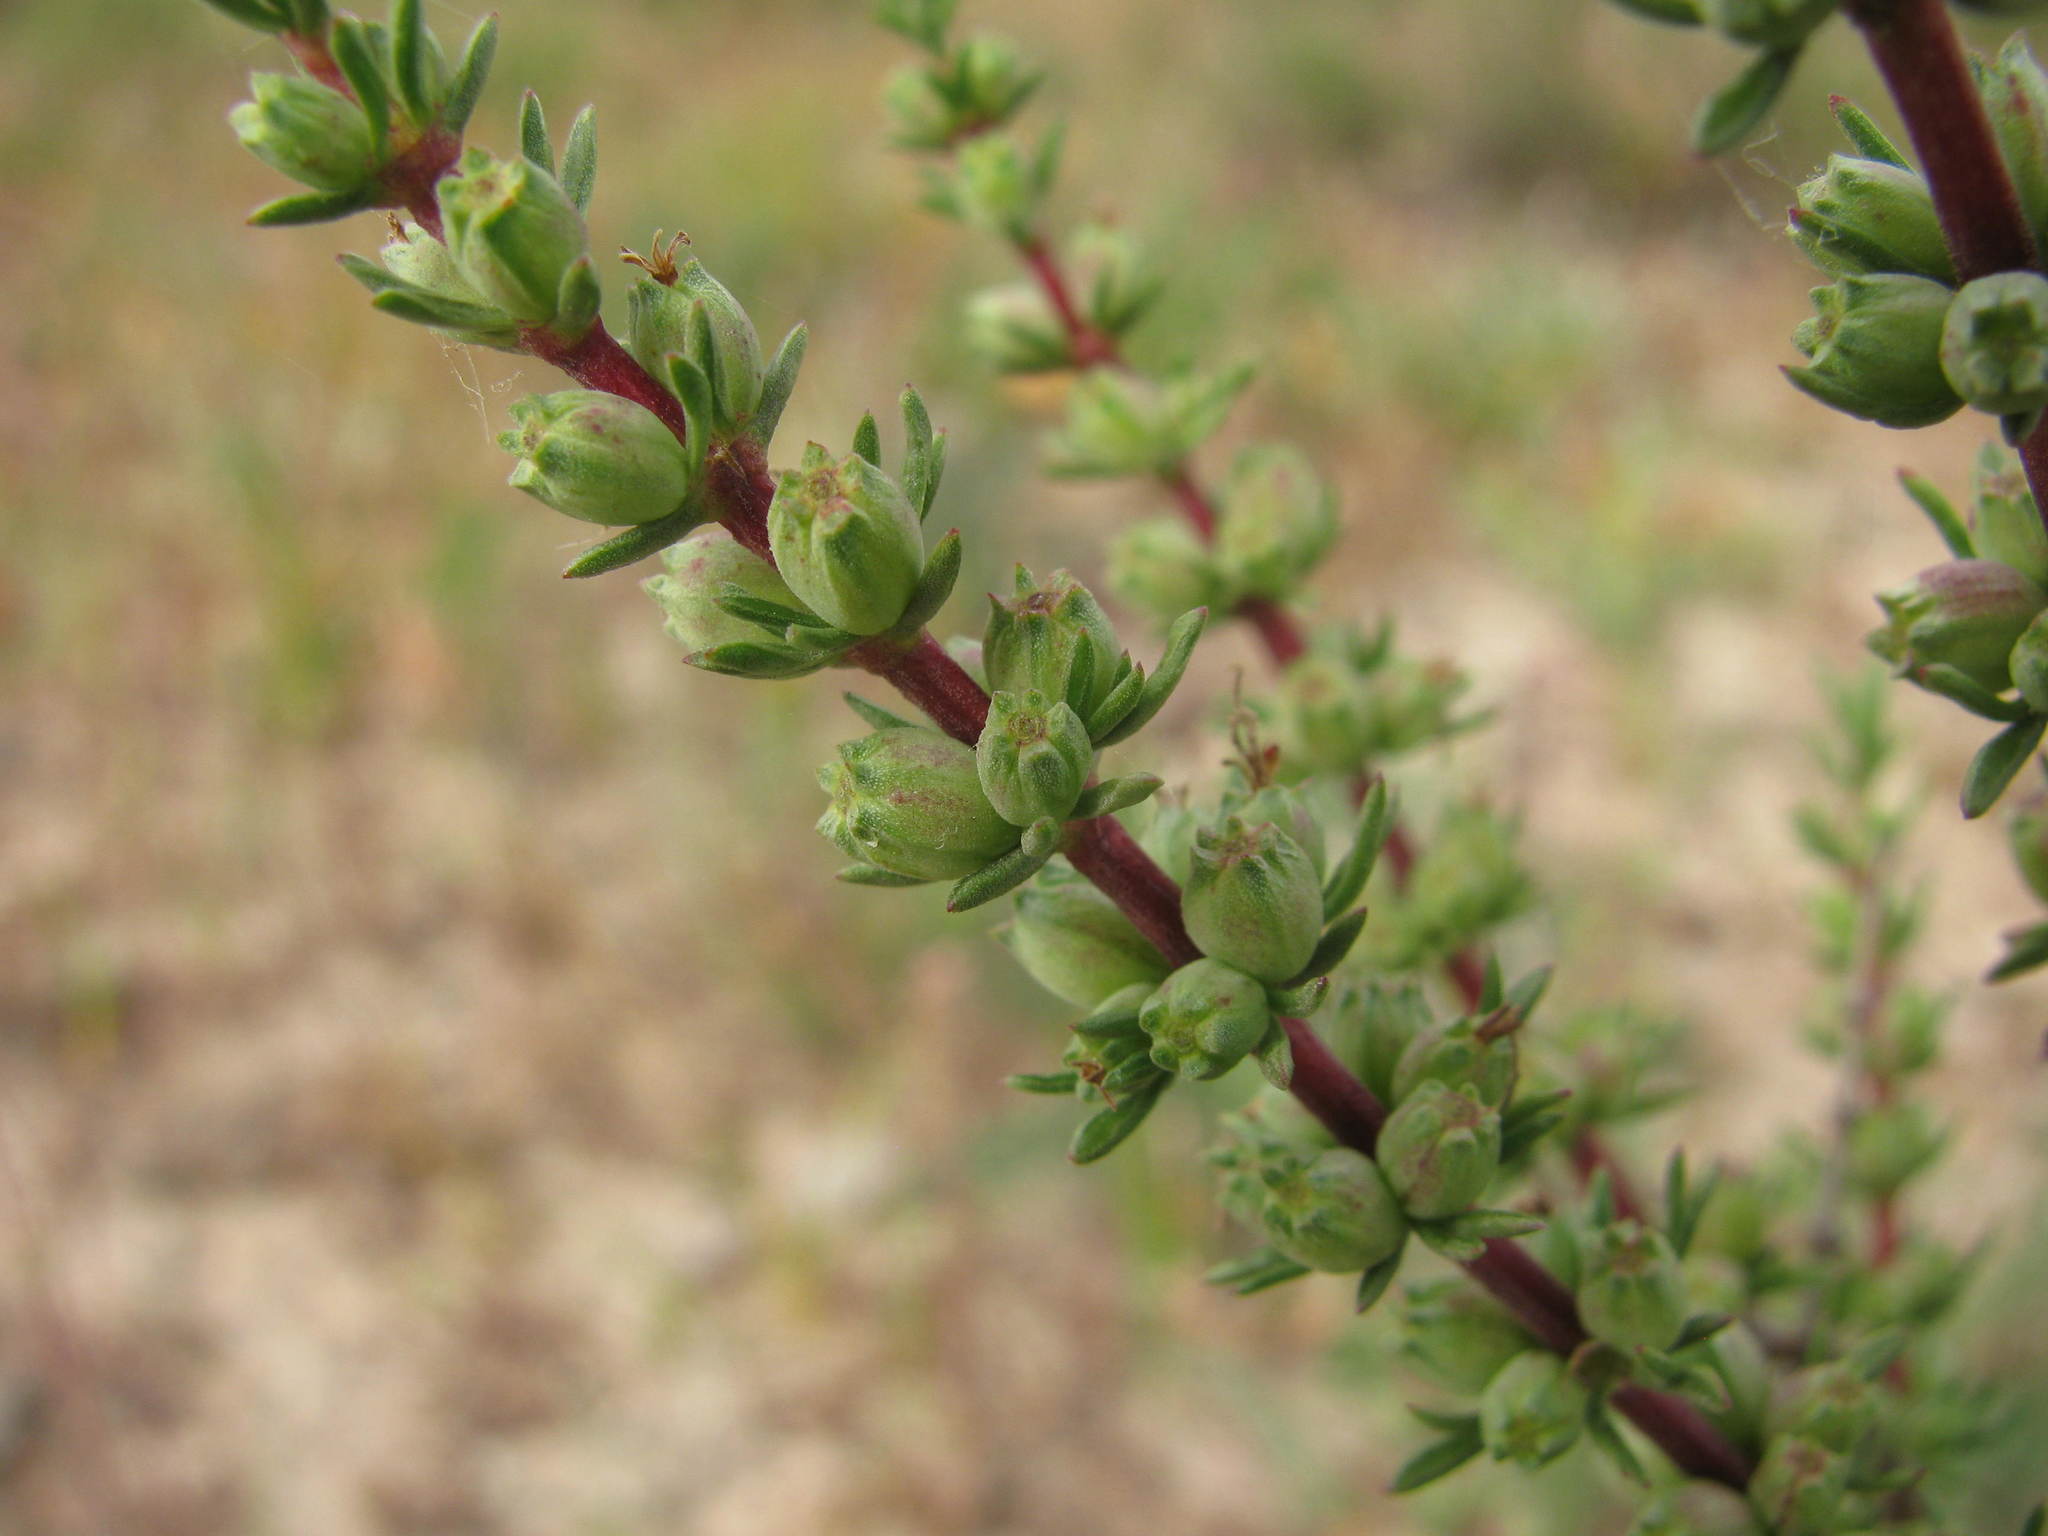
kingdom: Plantae
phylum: Tracheophyta
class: Magnoliopsida
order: Gentianales
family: Rubiaceae
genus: Nenax
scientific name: Nenax acerosa
